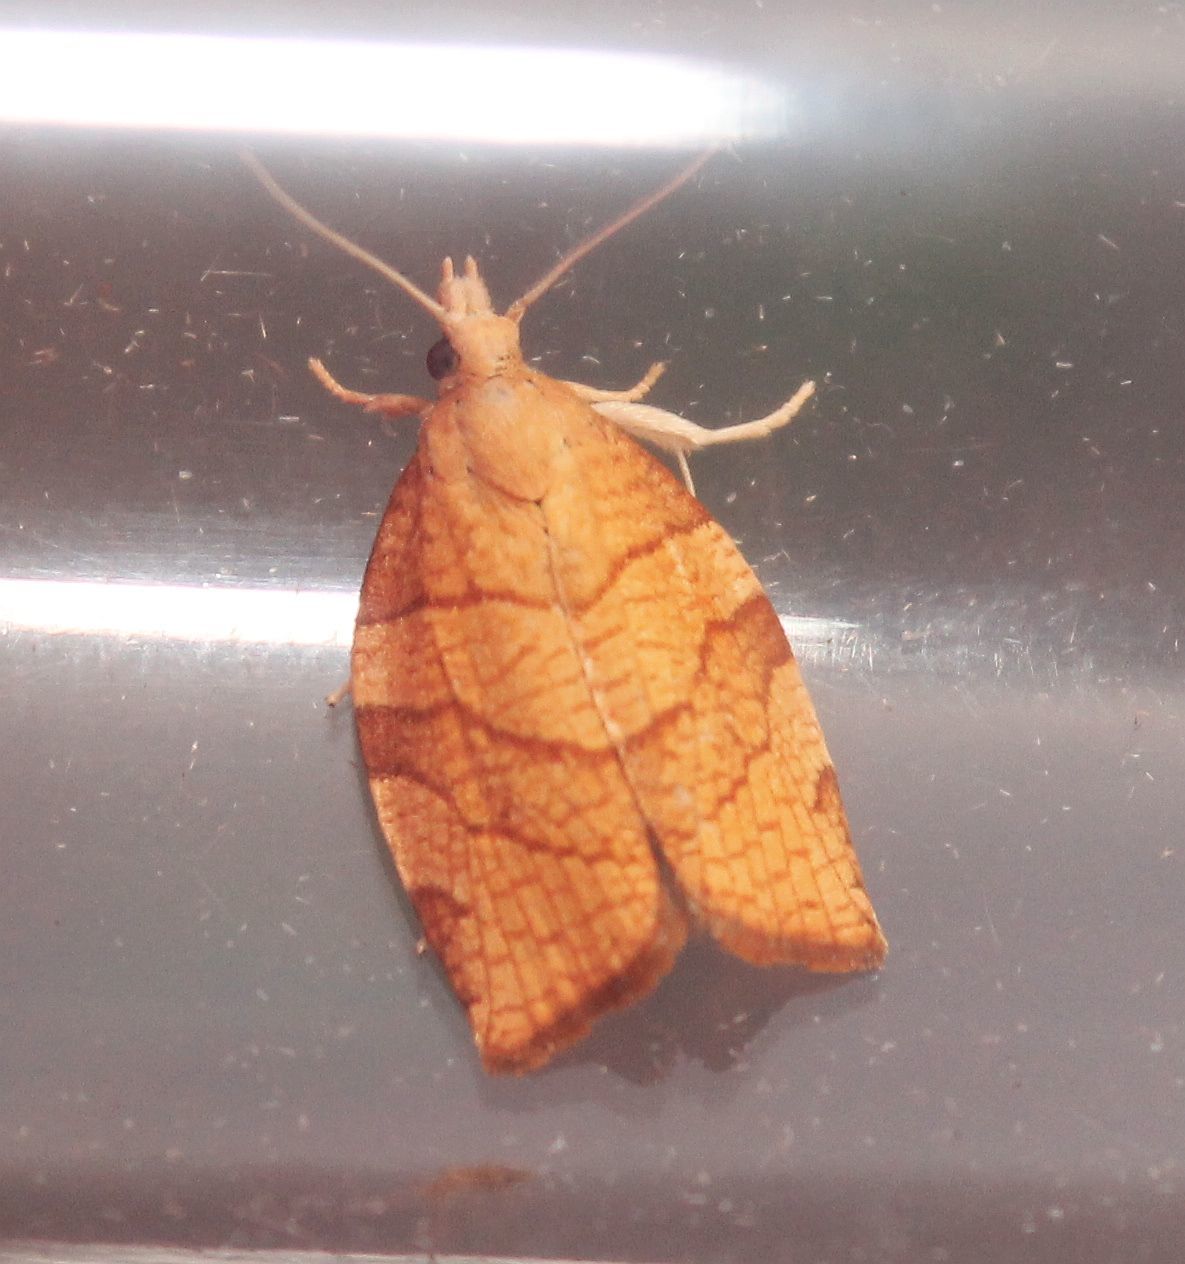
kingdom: Animalia
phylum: Arthropoda
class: Insecta
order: Lepidoptera
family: Tortricidae
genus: Pandemis
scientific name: Pandemis corylana
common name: Chequered fruit-tree tortrix
